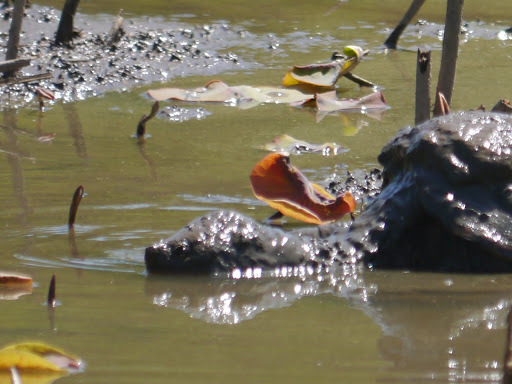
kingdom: Animalia
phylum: Chordata
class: Testudines
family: Chelydridae
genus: Chelydra
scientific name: Chelydra serpentina
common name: Common snapping turtle
